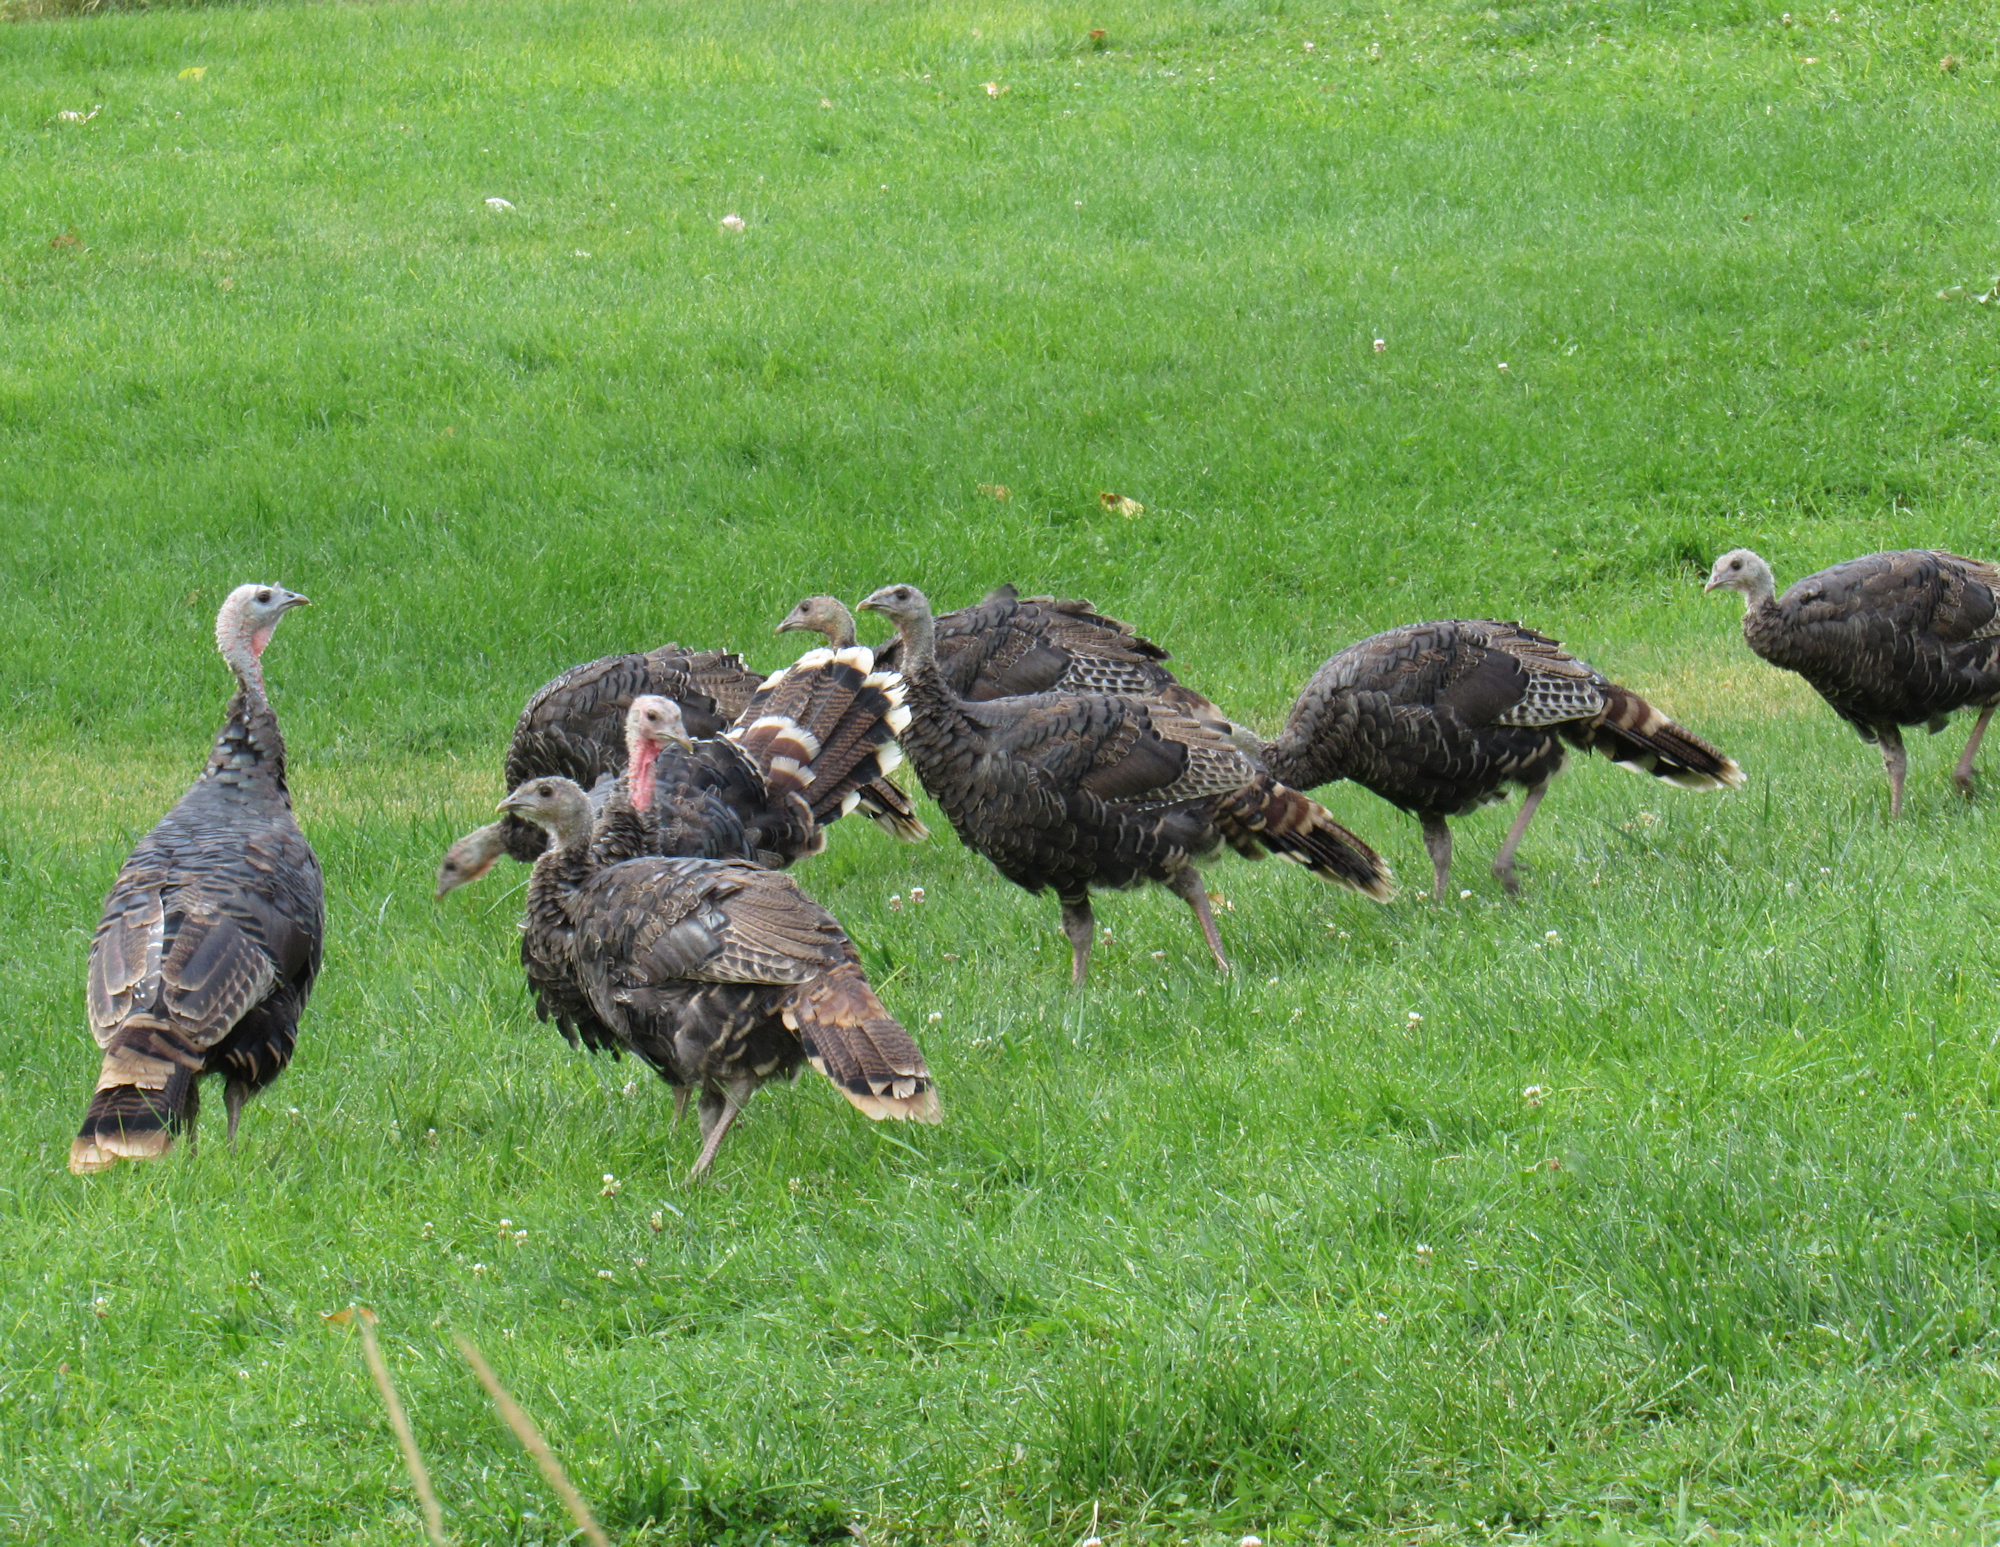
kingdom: Animalia
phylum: Chordata
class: Aves
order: Galliformes
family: Phasianidae
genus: Meleagris
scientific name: Meleagris gallopavo
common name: Wild turkey
